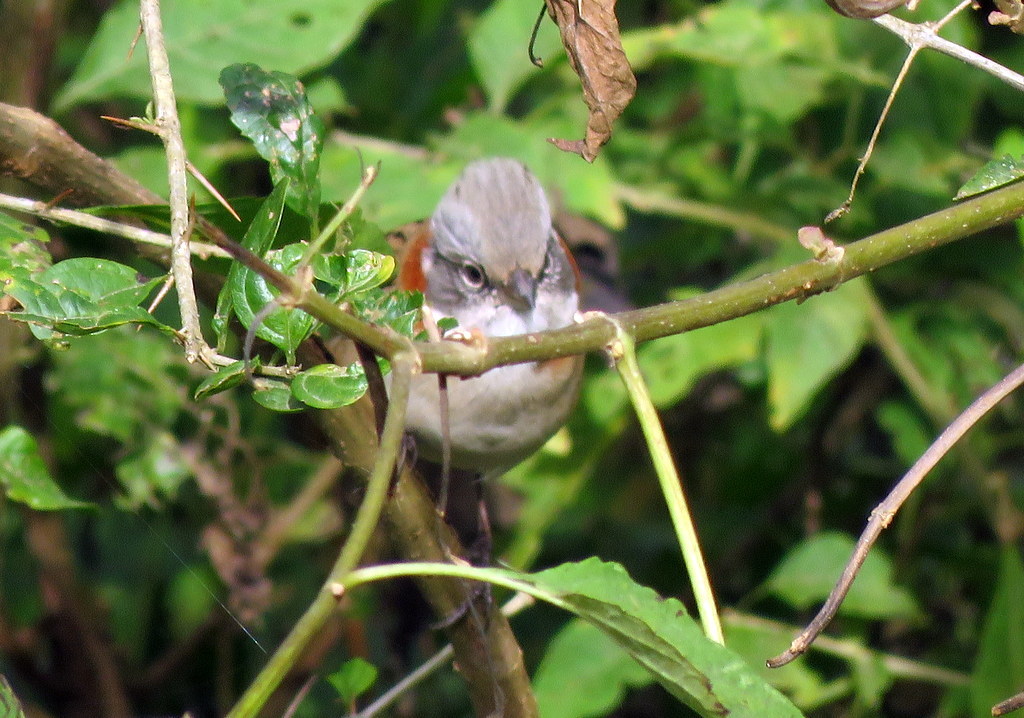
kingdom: Animalia
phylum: Chordata
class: Aves
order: Passeriformes
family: Passerellidae
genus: Zonotrichia
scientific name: Zonotrichia capensis
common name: Rufous-collared sparrow
